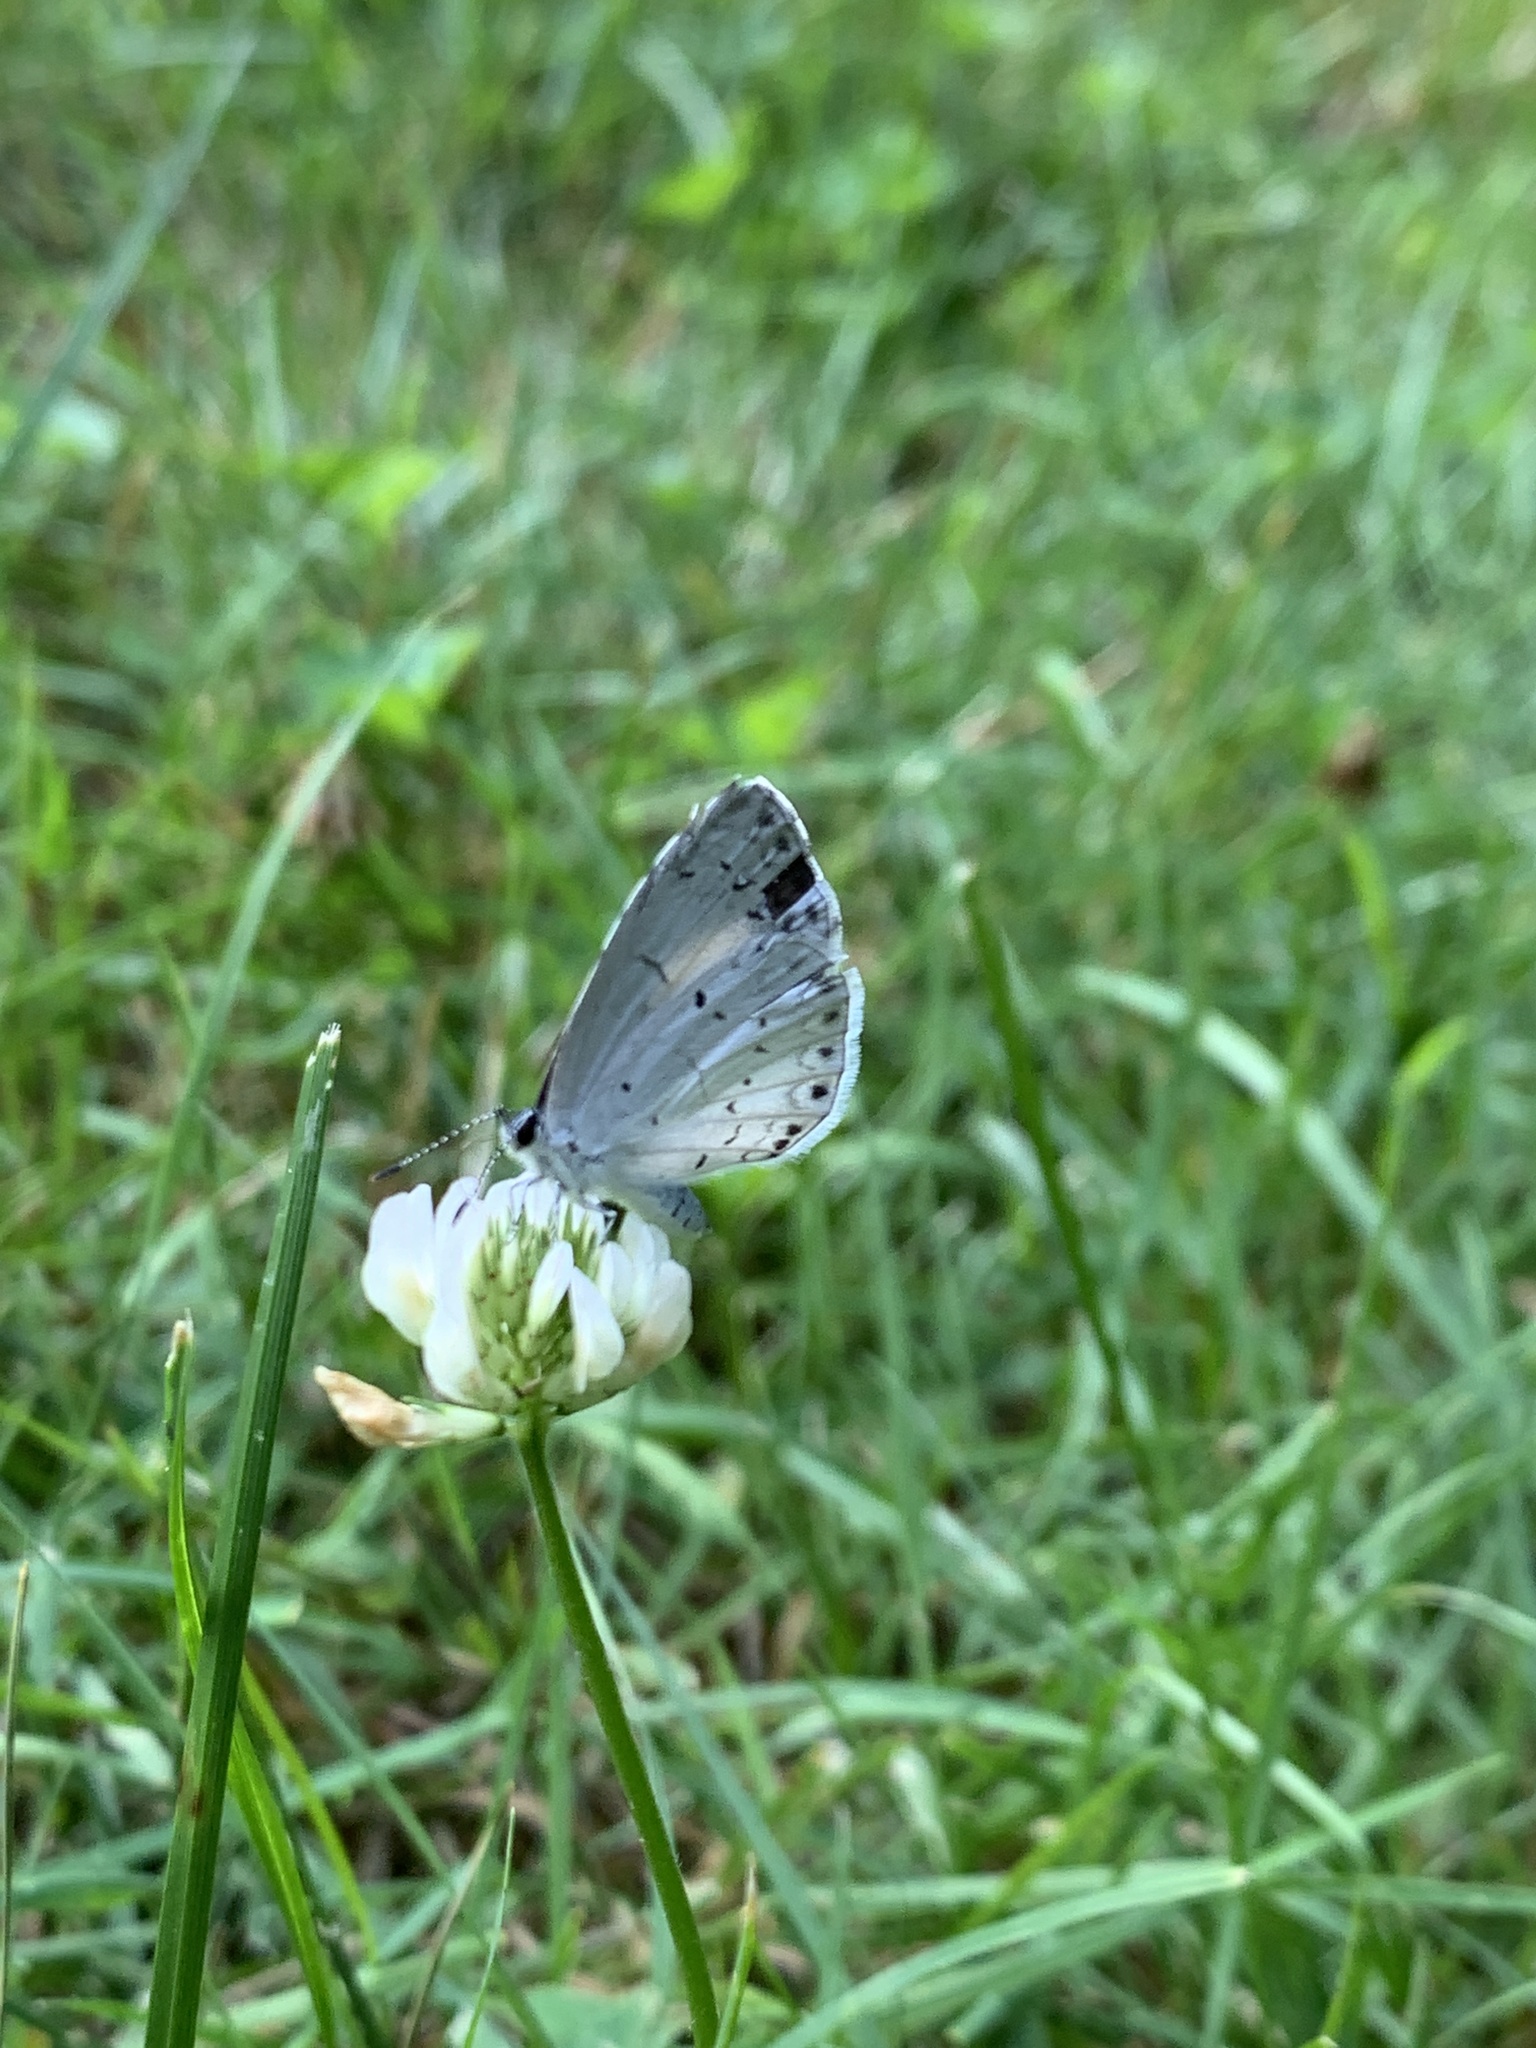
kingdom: Animalia
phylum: Arthropoda
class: Insecta
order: Lepidoptera
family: Lycaenidae
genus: Cyaniris
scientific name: Cyaniris neglecta
